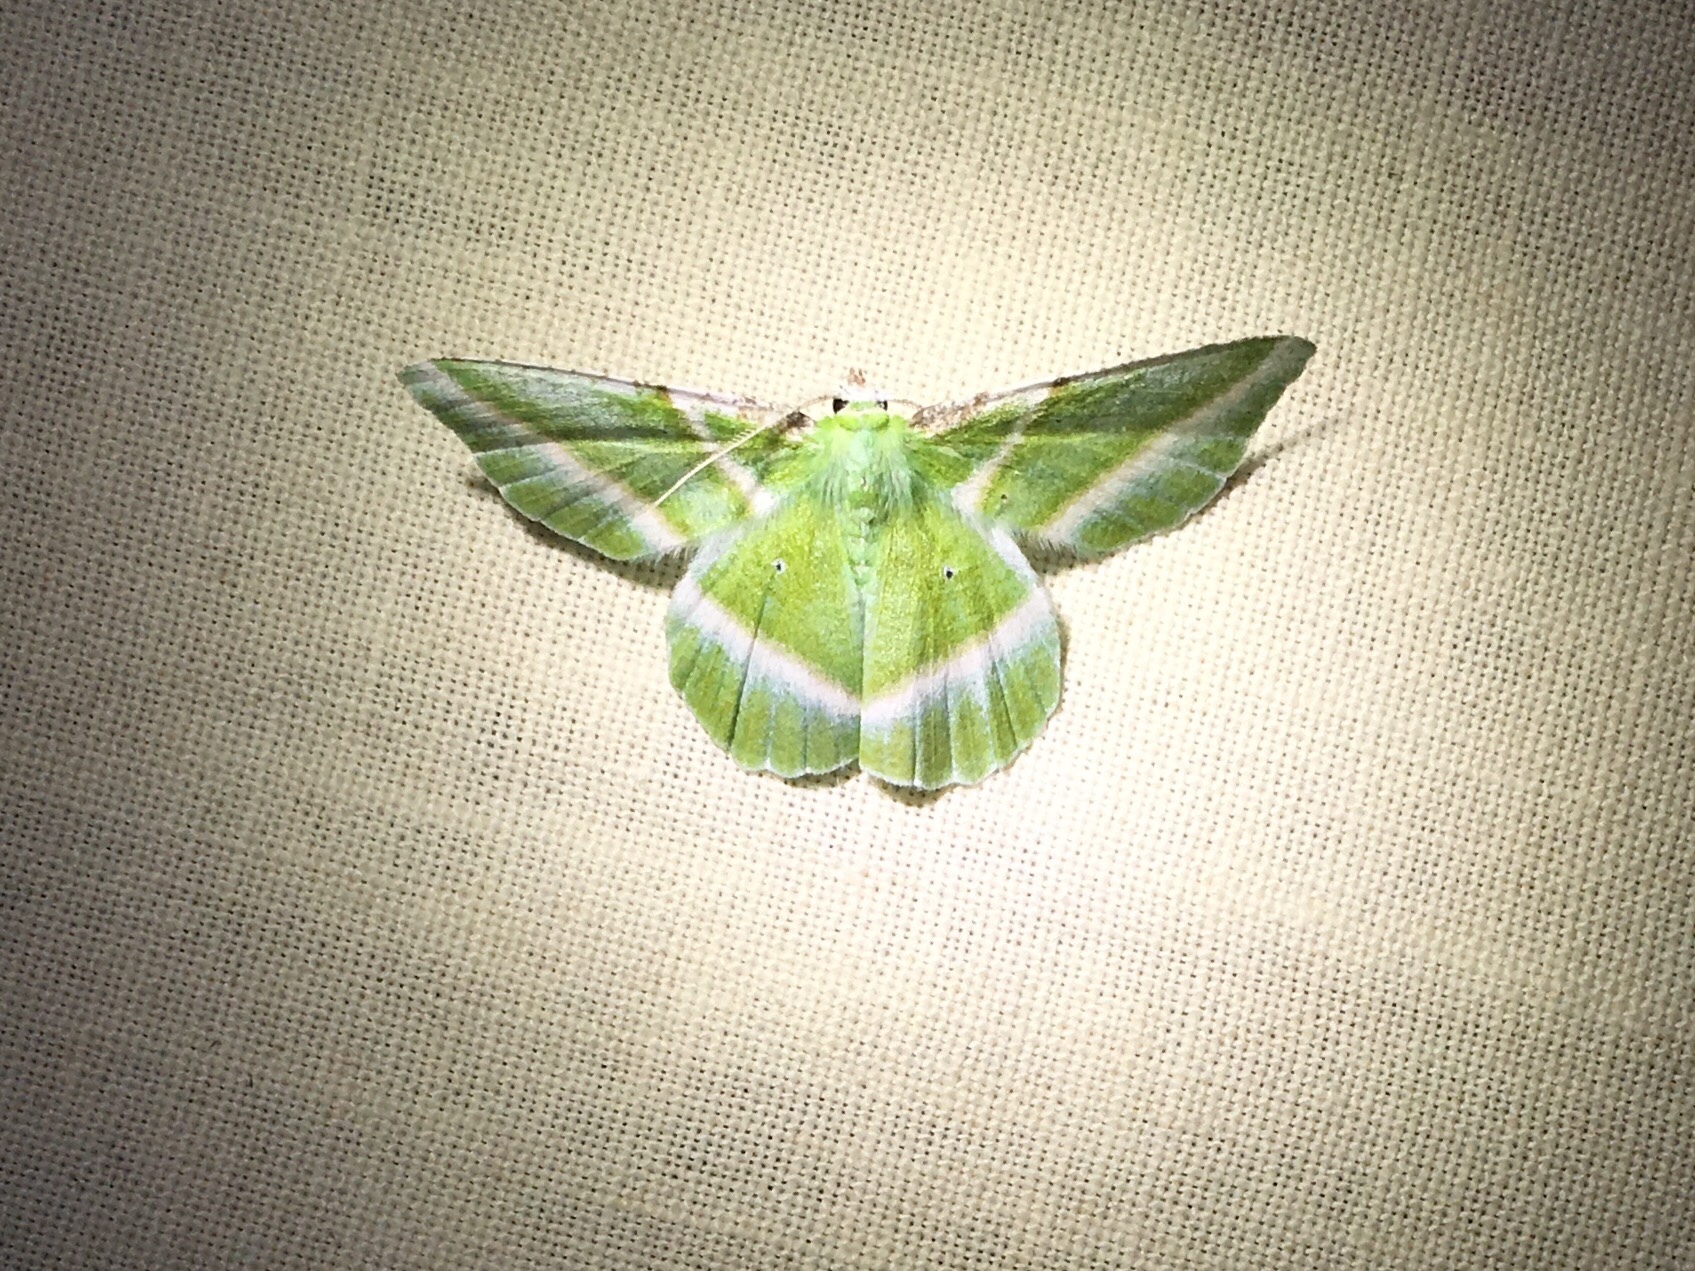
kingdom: Animalia
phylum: Arthropoda
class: Insecta
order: Lepidoptera
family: Geometridae
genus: Dichorda
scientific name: Dichorda iridaria
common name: Showy emerald
